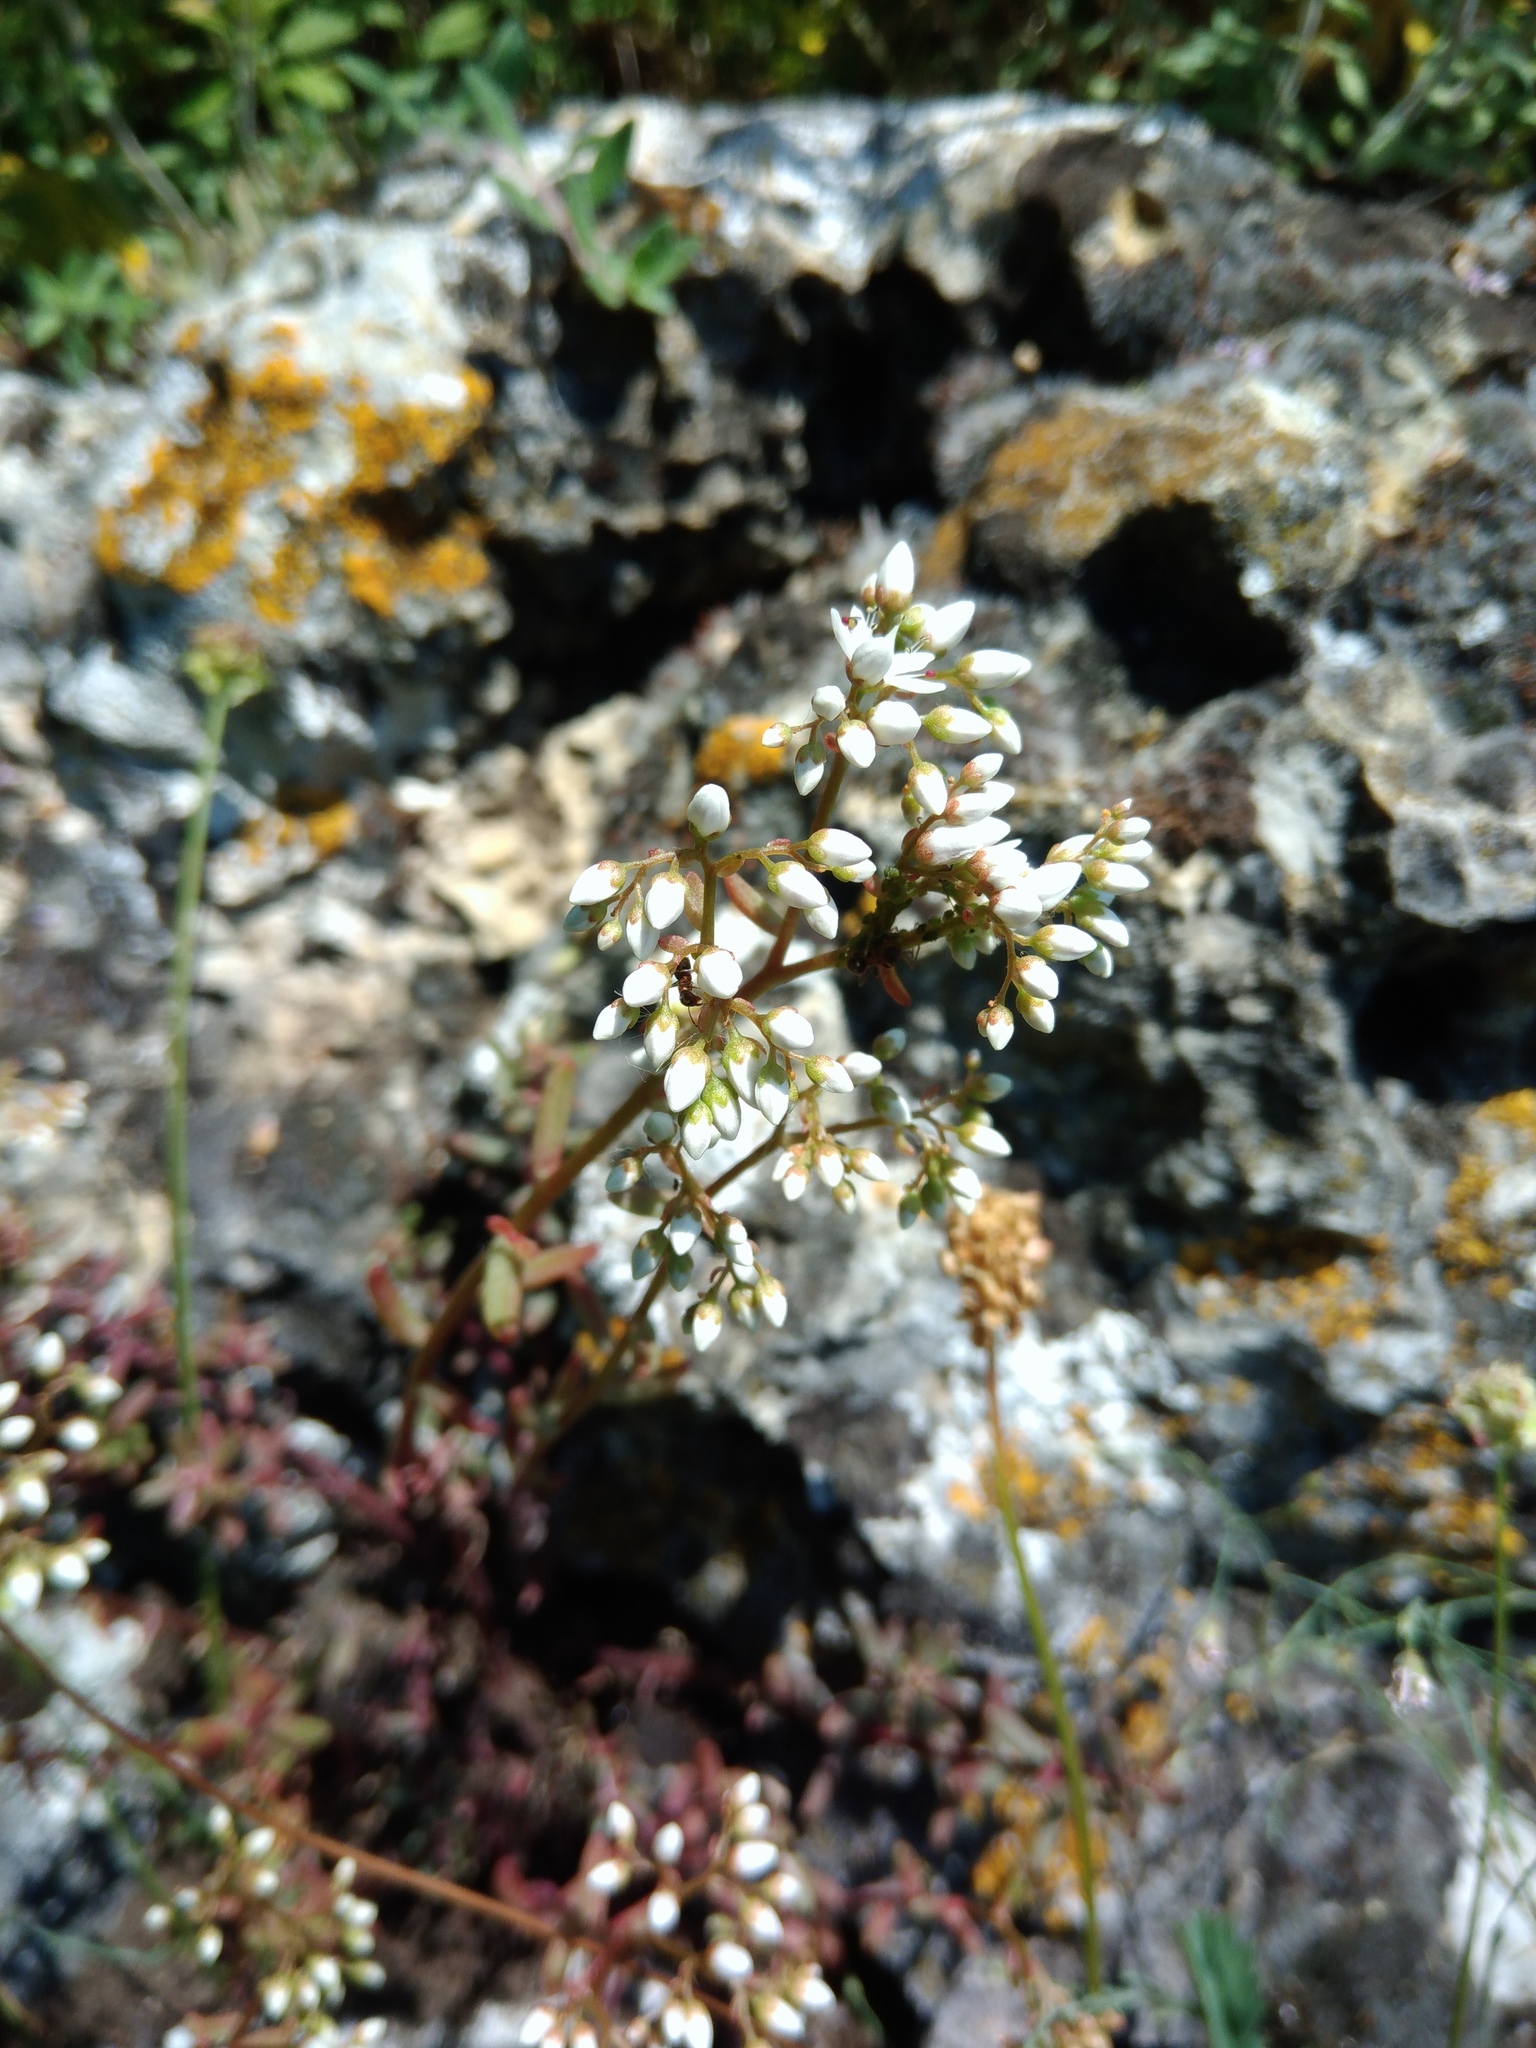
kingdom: Plantae
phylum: Tracheophyta
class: Magnoliopsida
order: Saxifragales
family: Crassulaceae
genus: Sedum
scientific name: Sedum album
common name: White stonecrop
